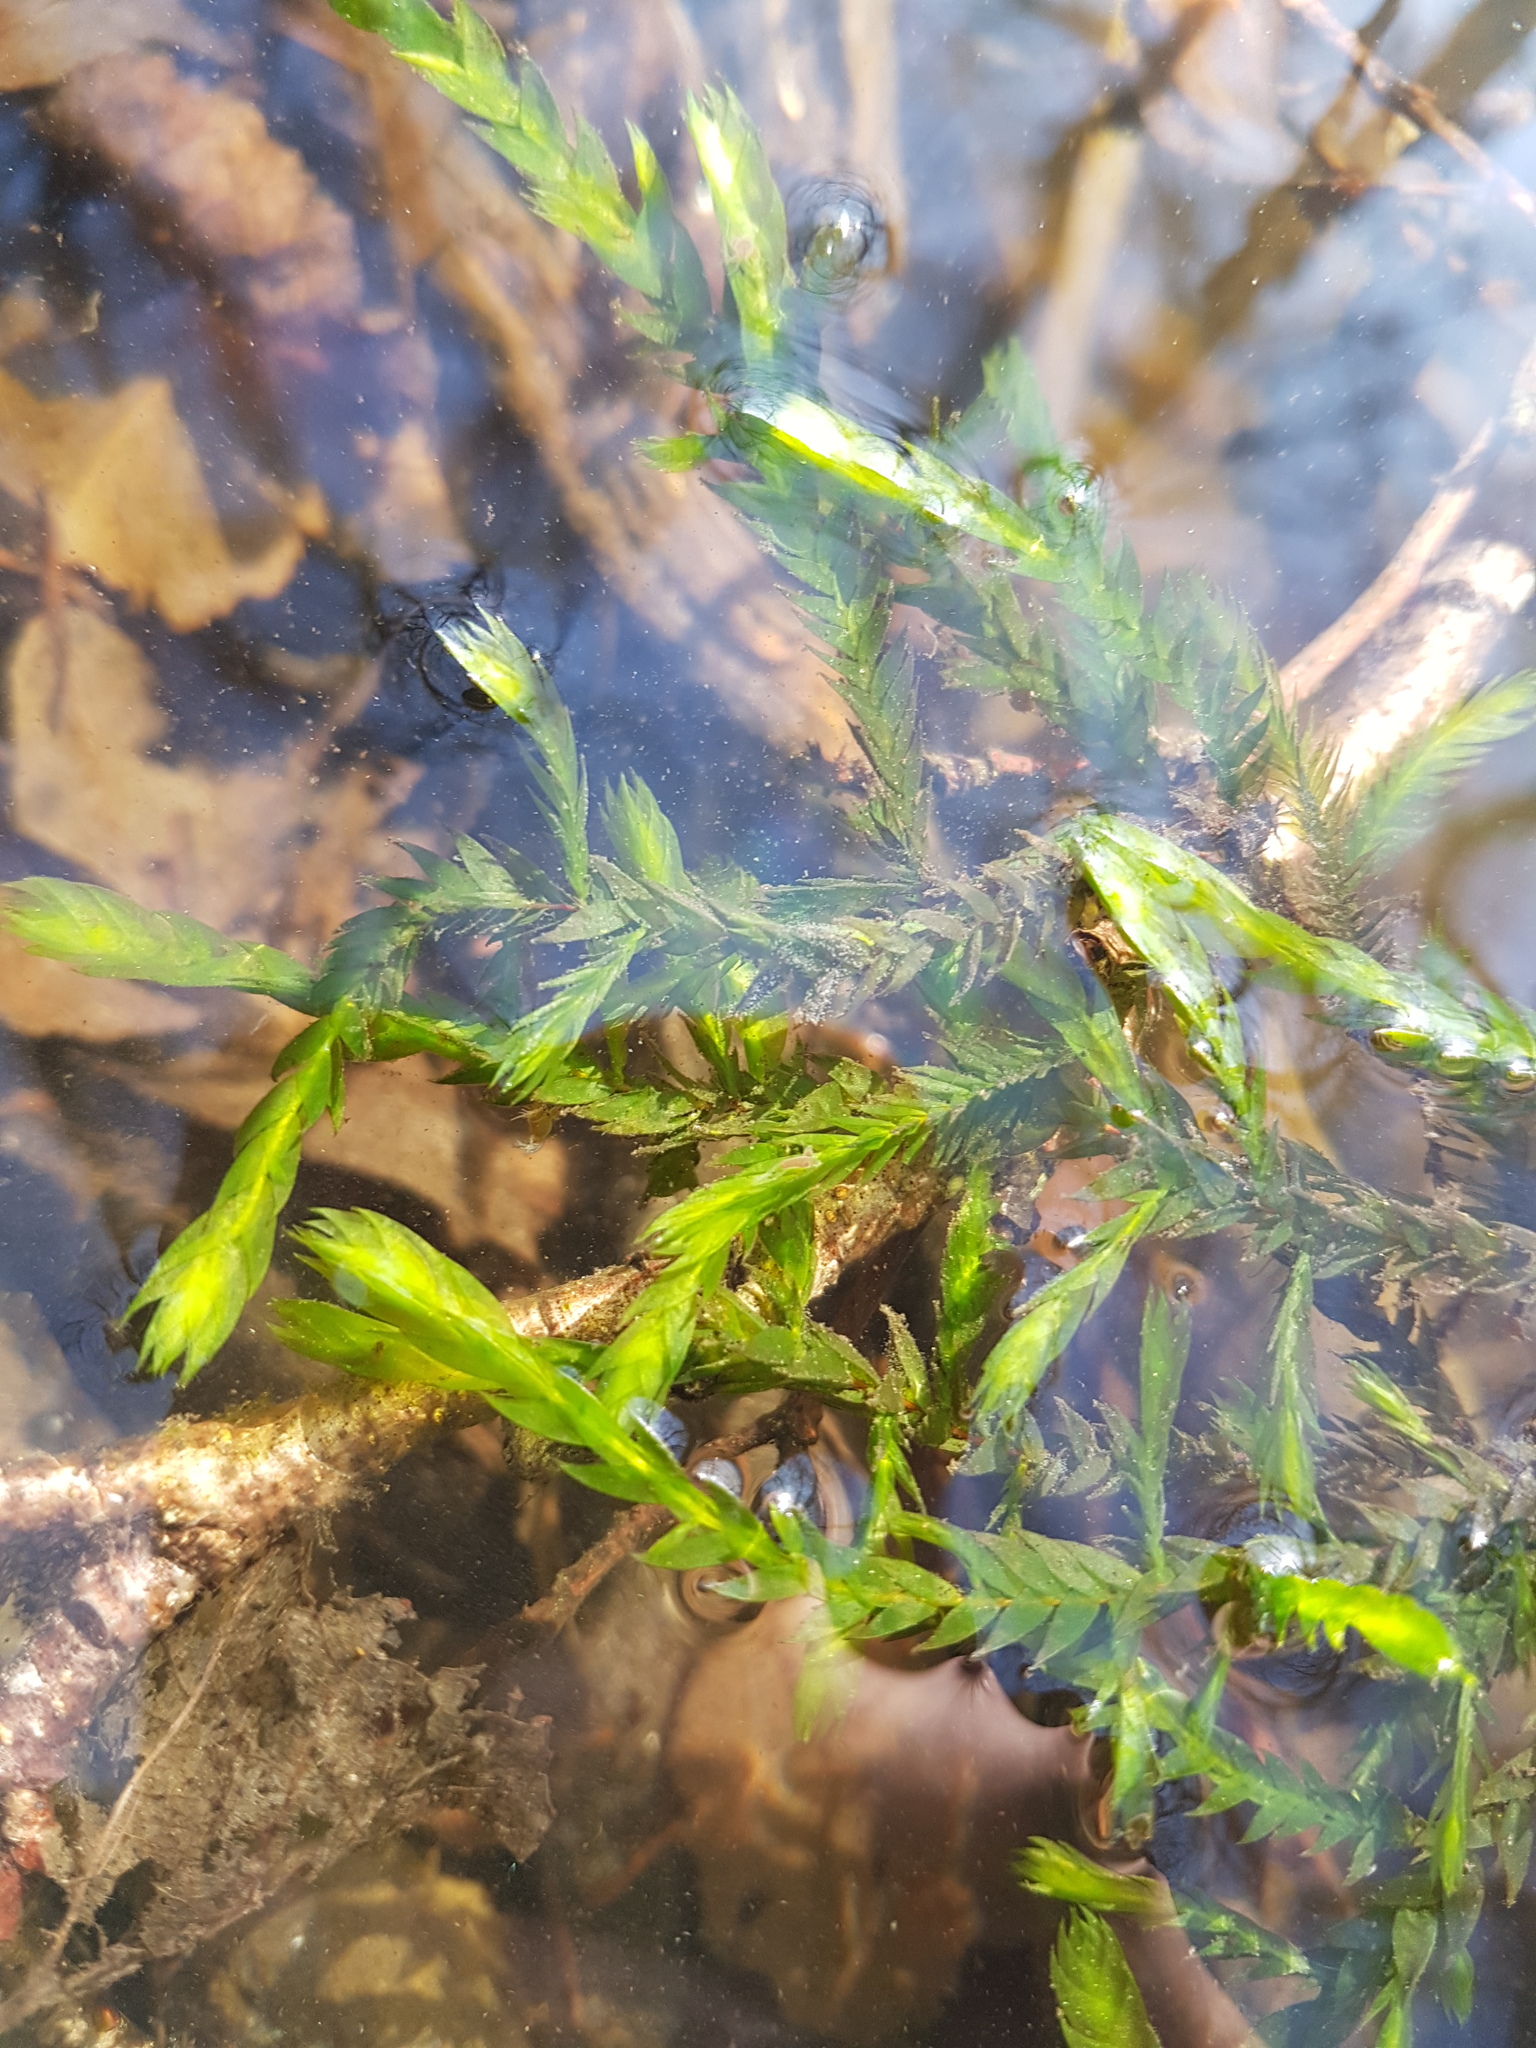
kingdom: Plantae
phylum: Bryophyta
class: Bryopsida
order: Hypnales
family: Fontinalaceae
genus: Fontinalis
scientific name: Fontinalis antipyretica
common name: Greater water-moss
